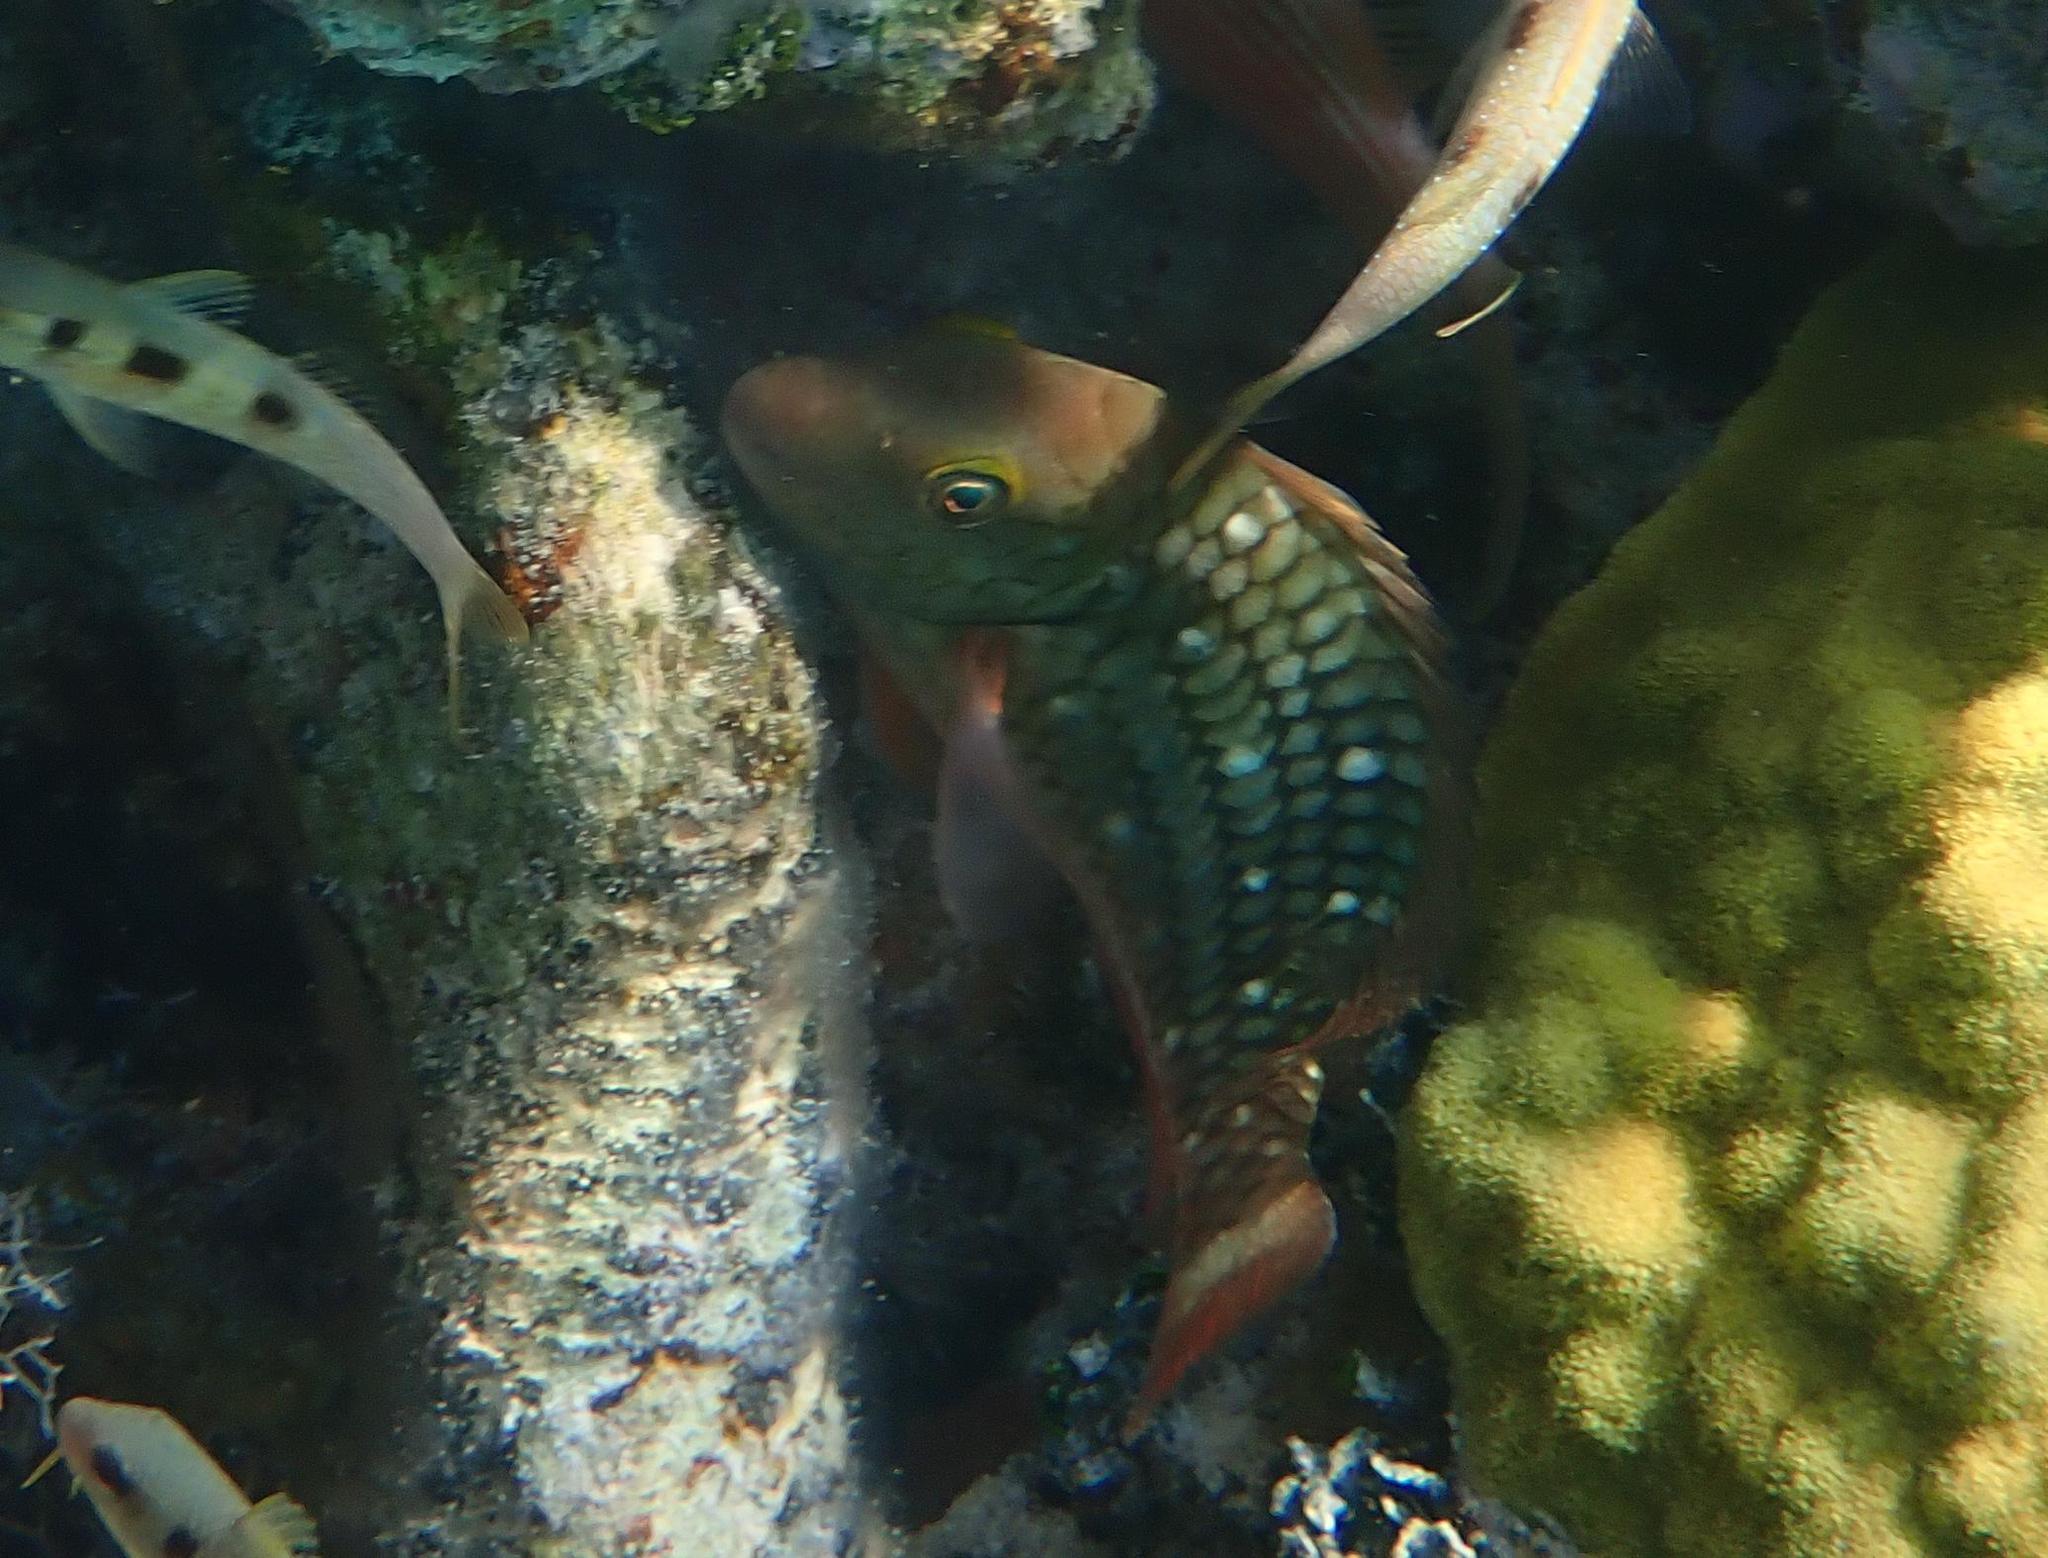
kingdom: Animalia
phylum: Chordata
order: Perciformes
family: Scaridae
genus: Sparisoma
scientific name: Sparisoma viride
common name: Stoplight parrotfish
